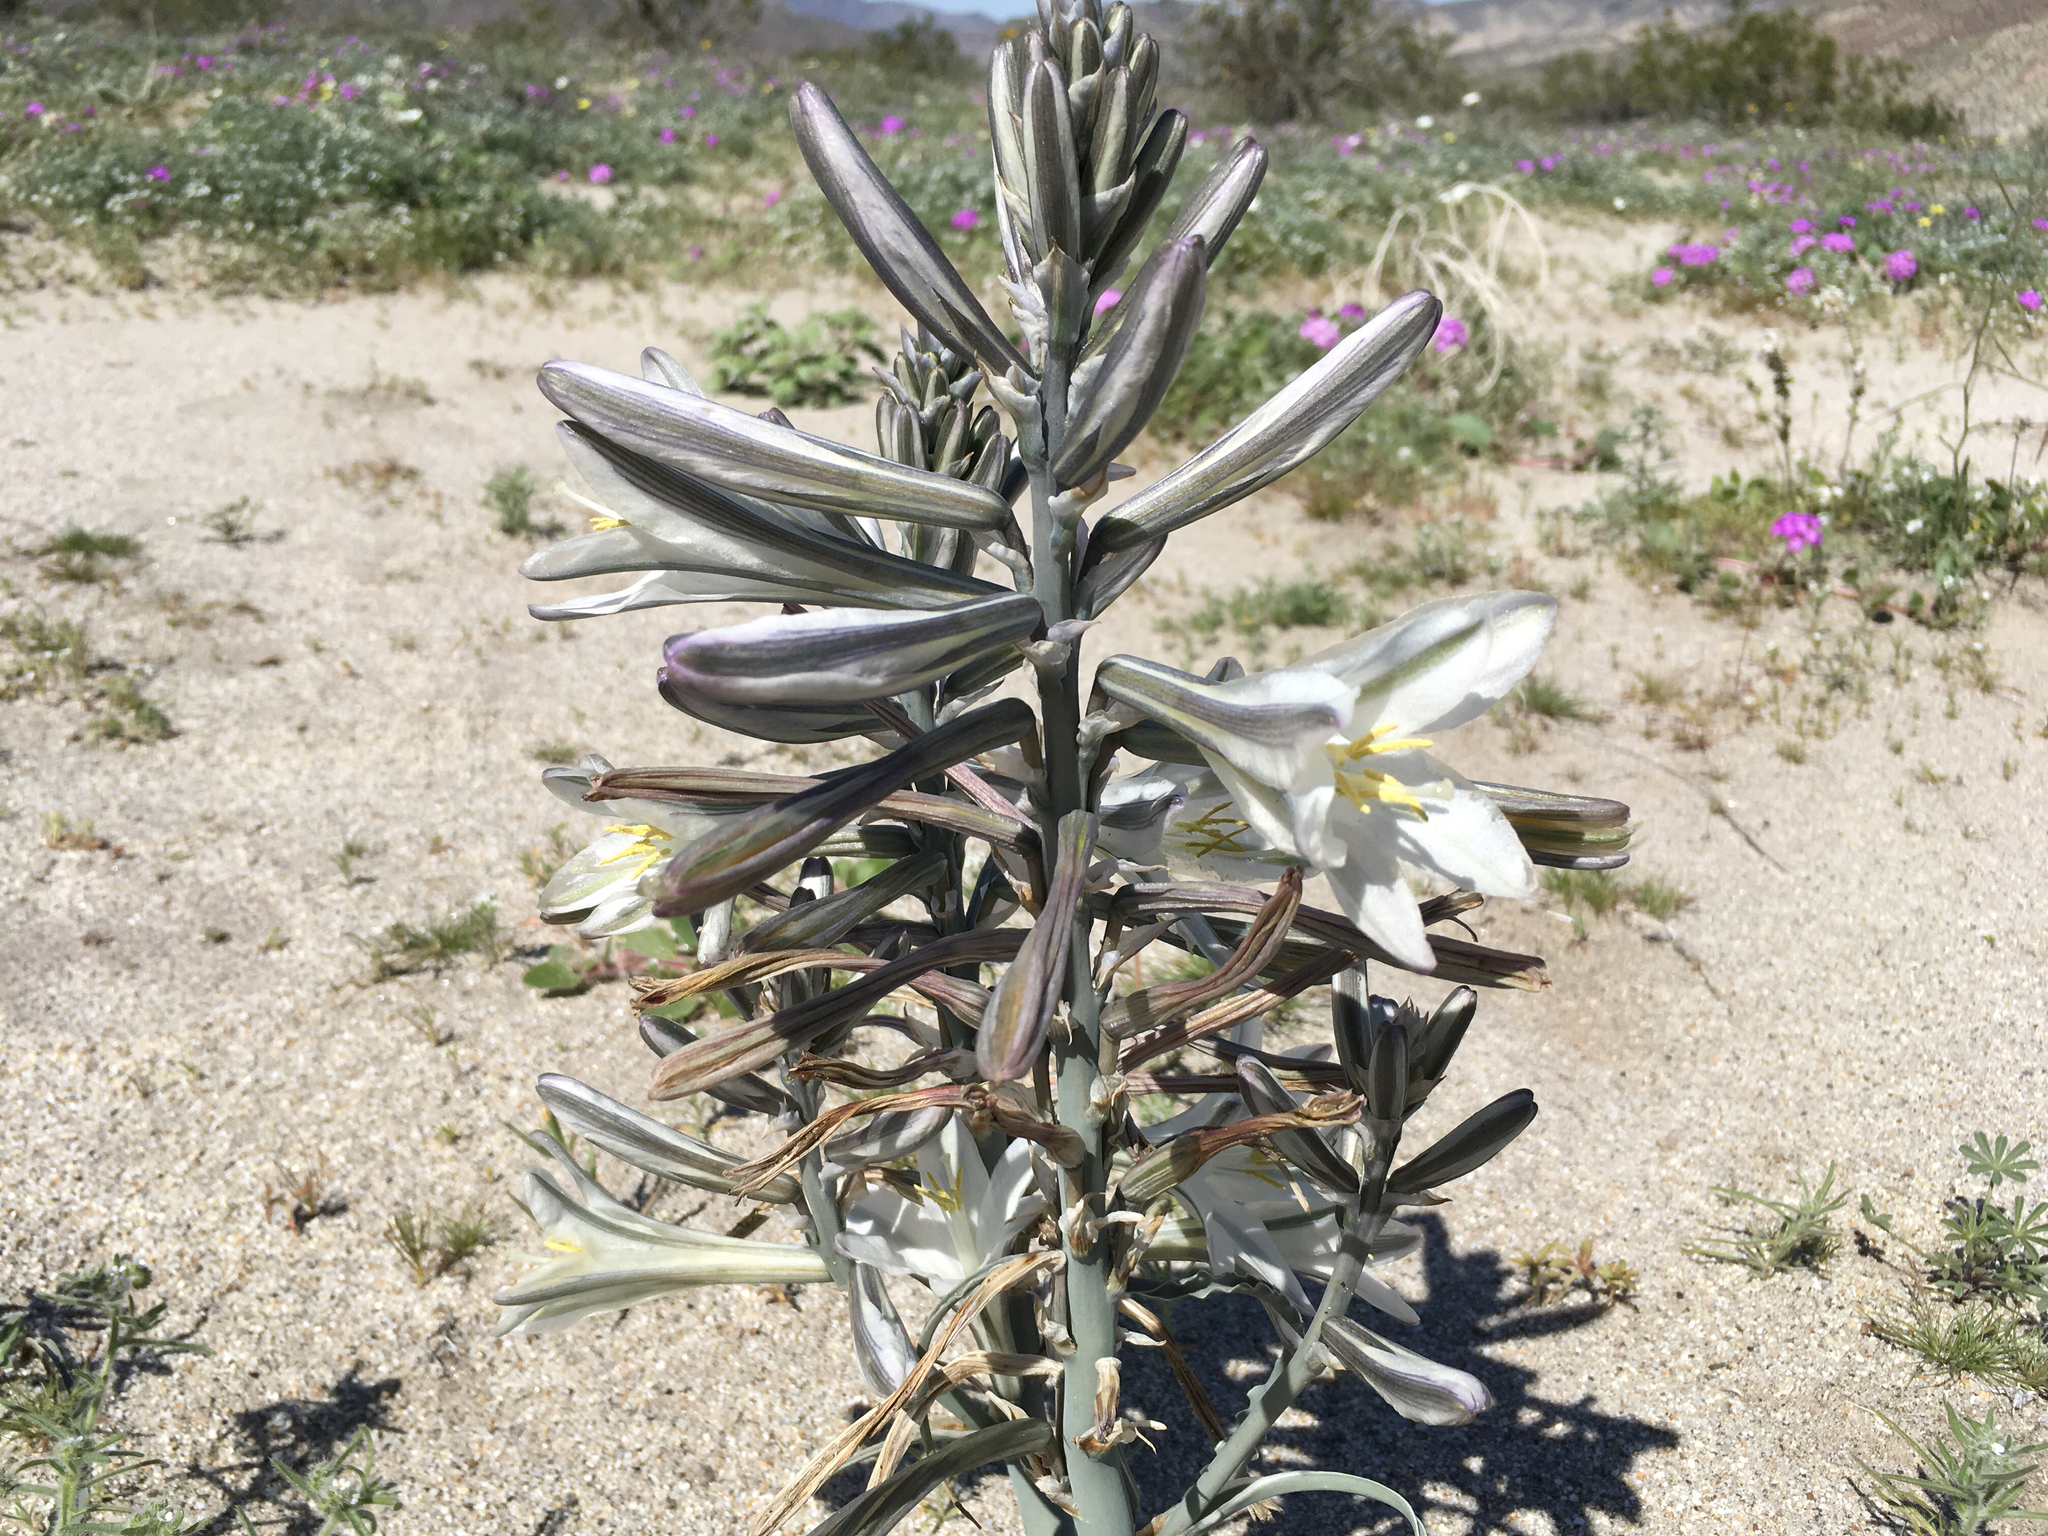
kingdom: Plantae
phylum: Tracheophyta
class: Liliopsida
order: Asparagales
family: Asparagaceae
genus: Hesperocallis
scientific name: Hesperocallis undulata
